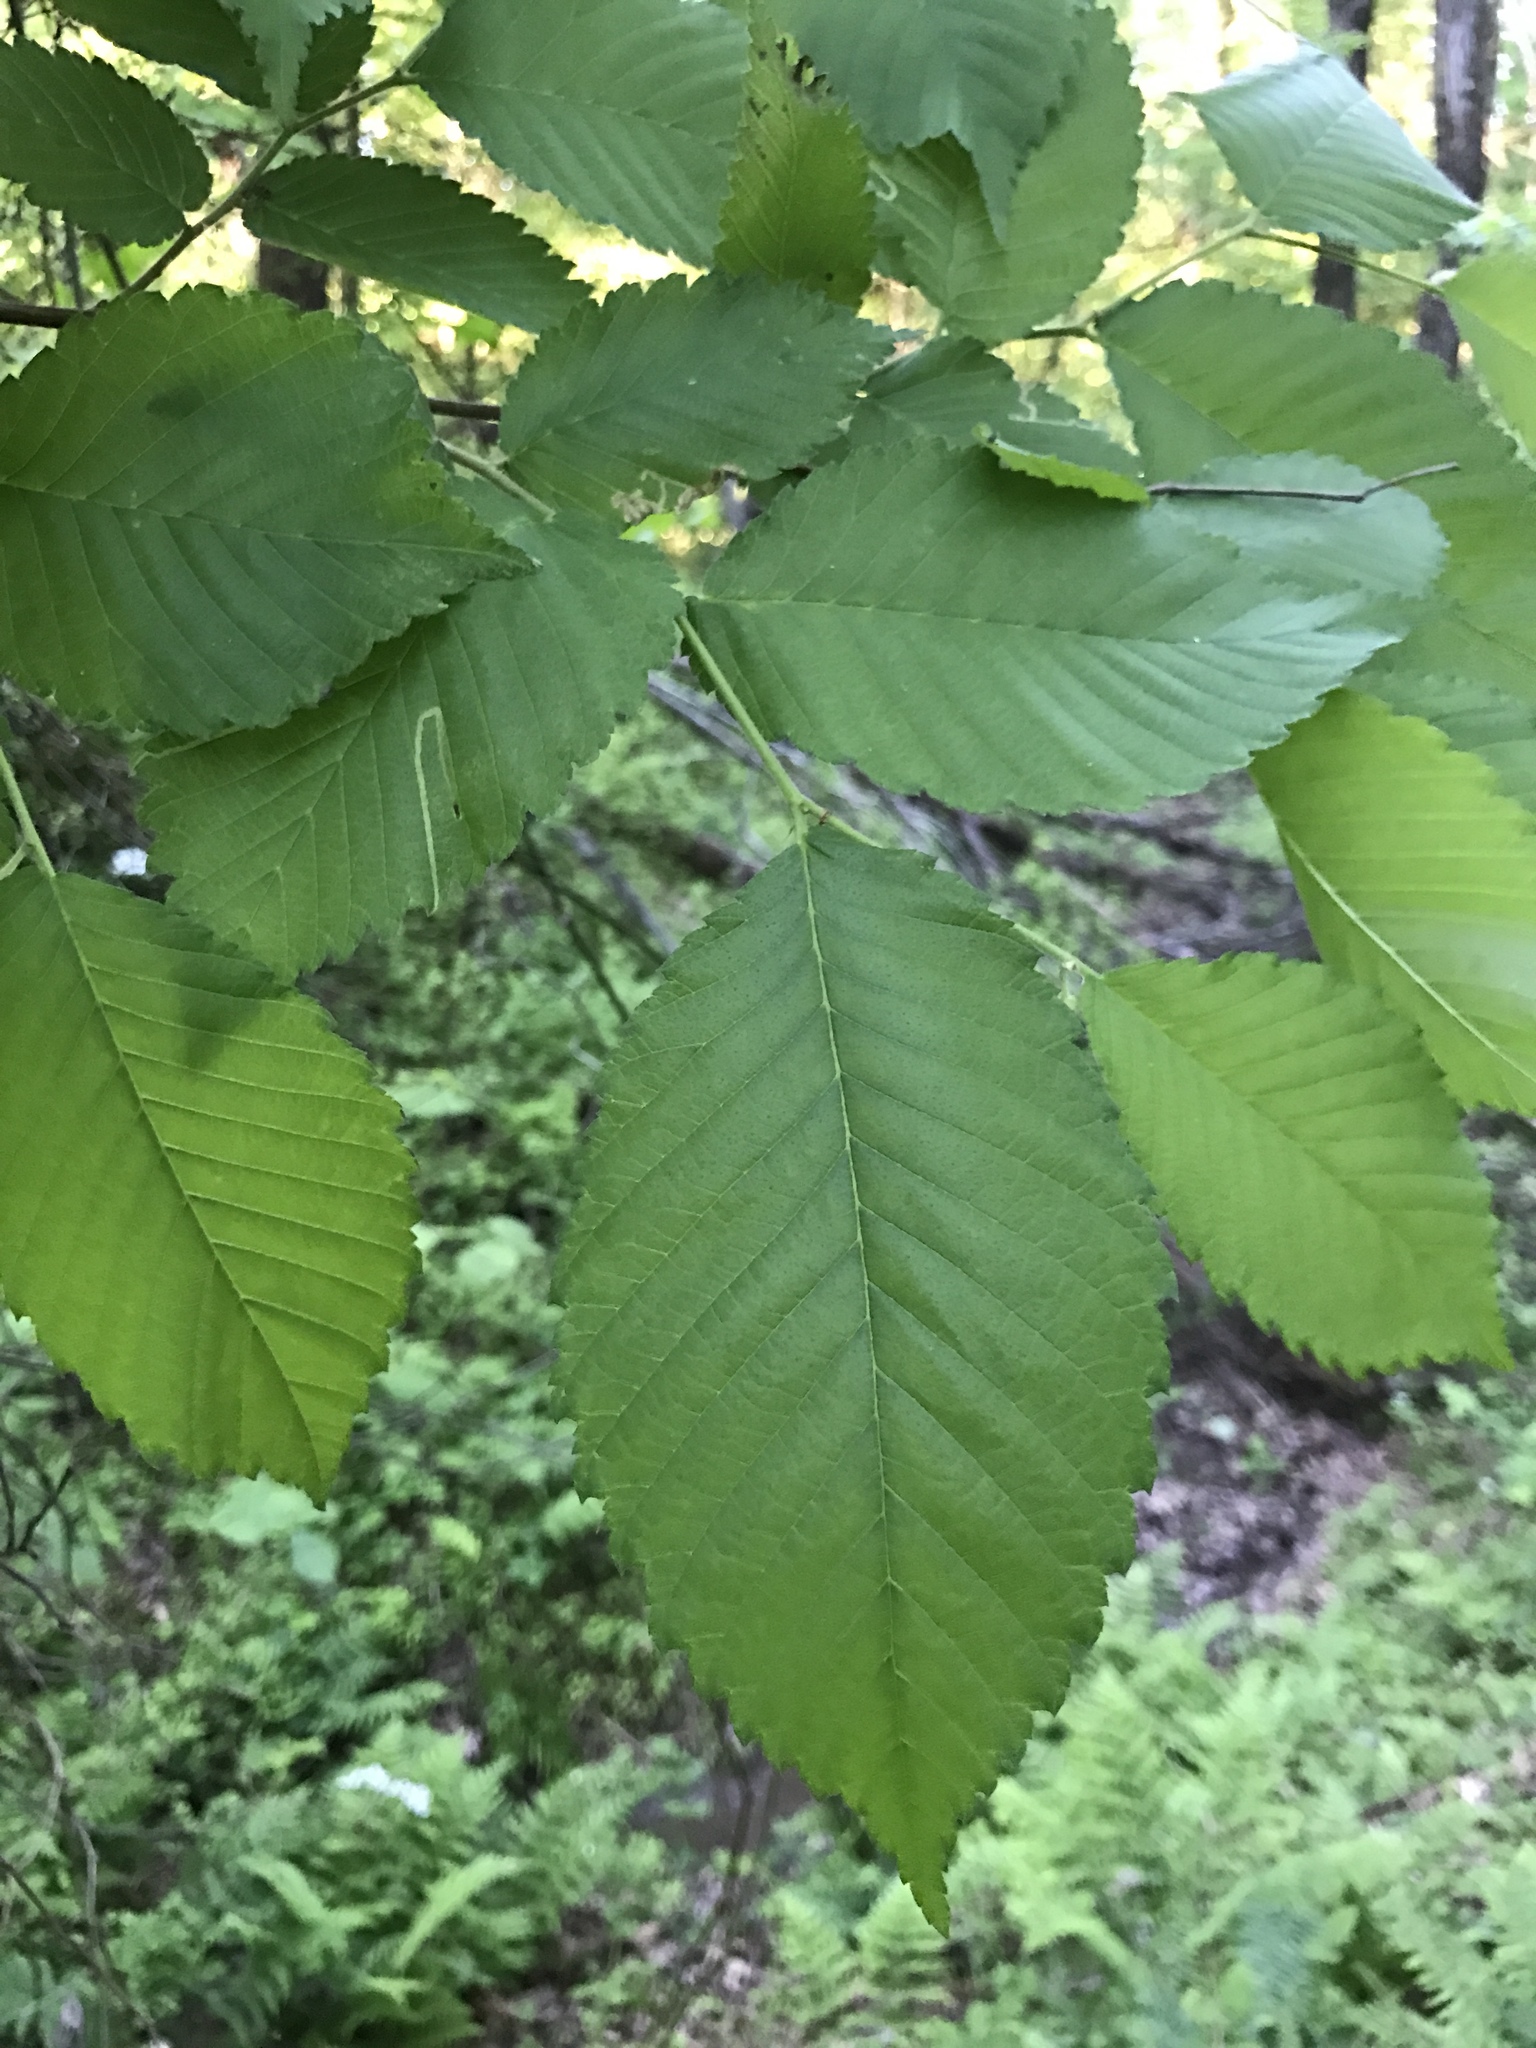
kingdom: Plantae
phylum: Tracheophyta
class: Magnoliopsida
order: Rosales
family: Ulmaceae
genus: Ulmus
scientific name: Ulmus americana
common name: American elm
